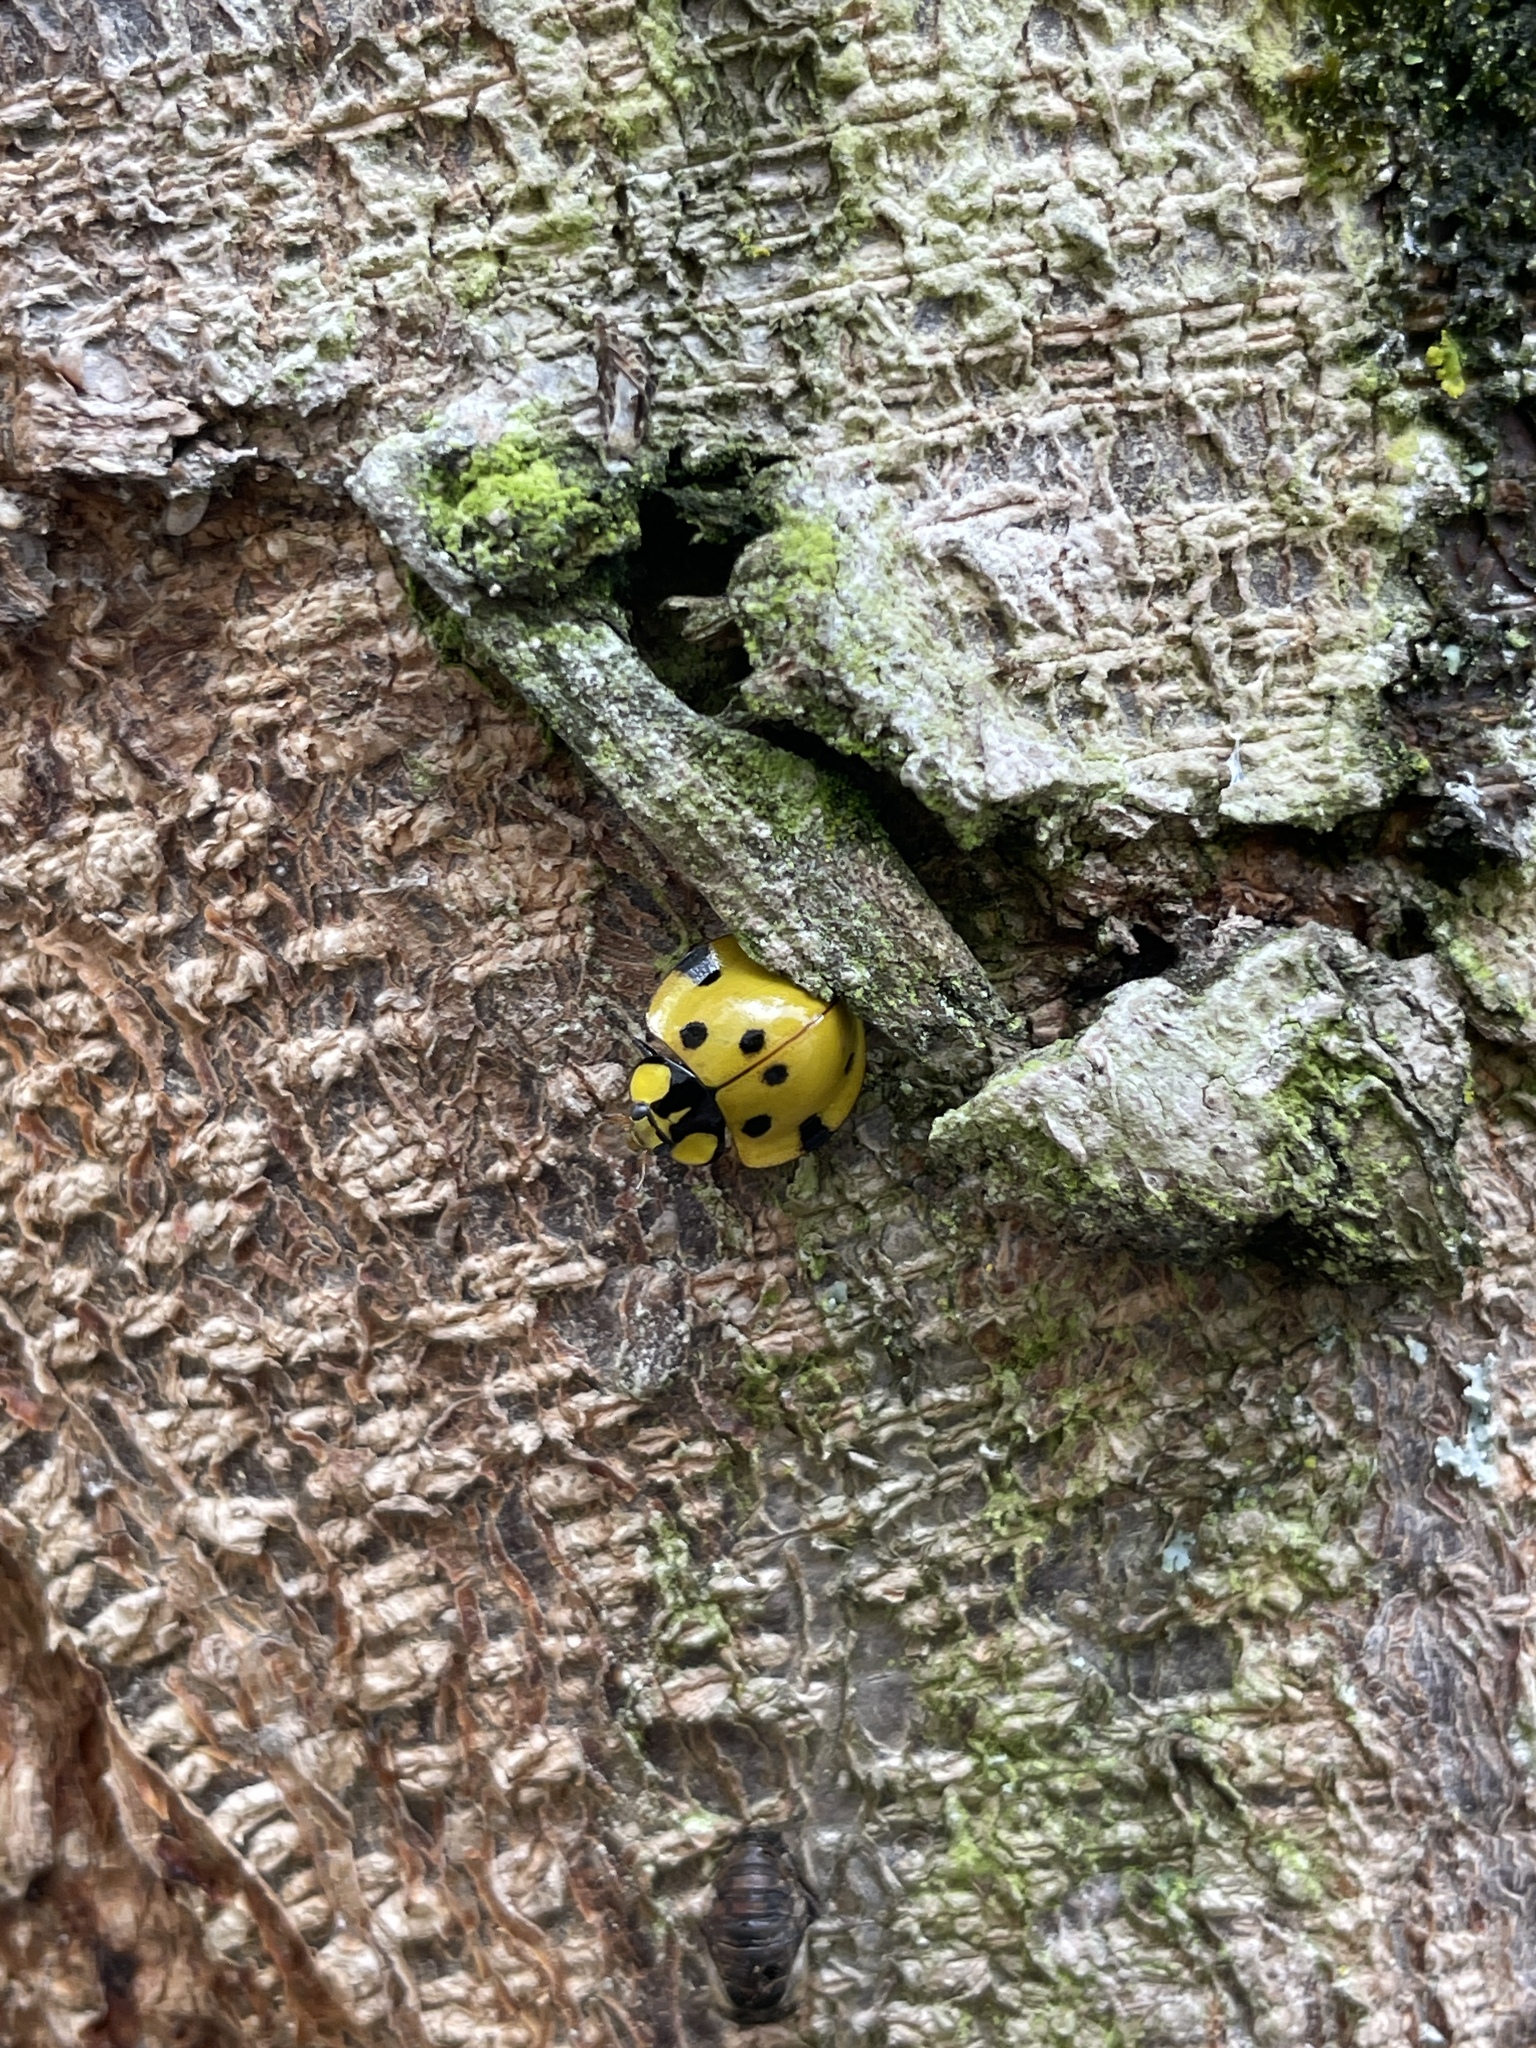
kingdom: Animalia
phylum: Arthropoda
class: Insecta
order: Coleoptera
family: Coccinellidae
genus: Neda
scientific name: Neda norrisi
